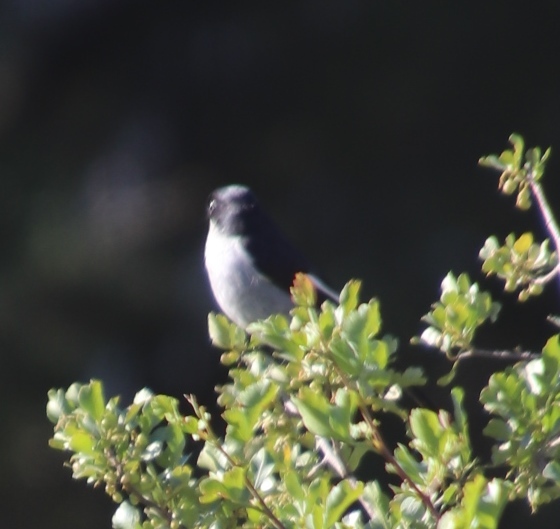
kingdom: Animalia
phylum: Chordata
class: Aves
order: Passeriformes
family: Muscicapidae
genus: Sigelus
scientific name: Sigelus silens
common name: Fiscal flycatcher
